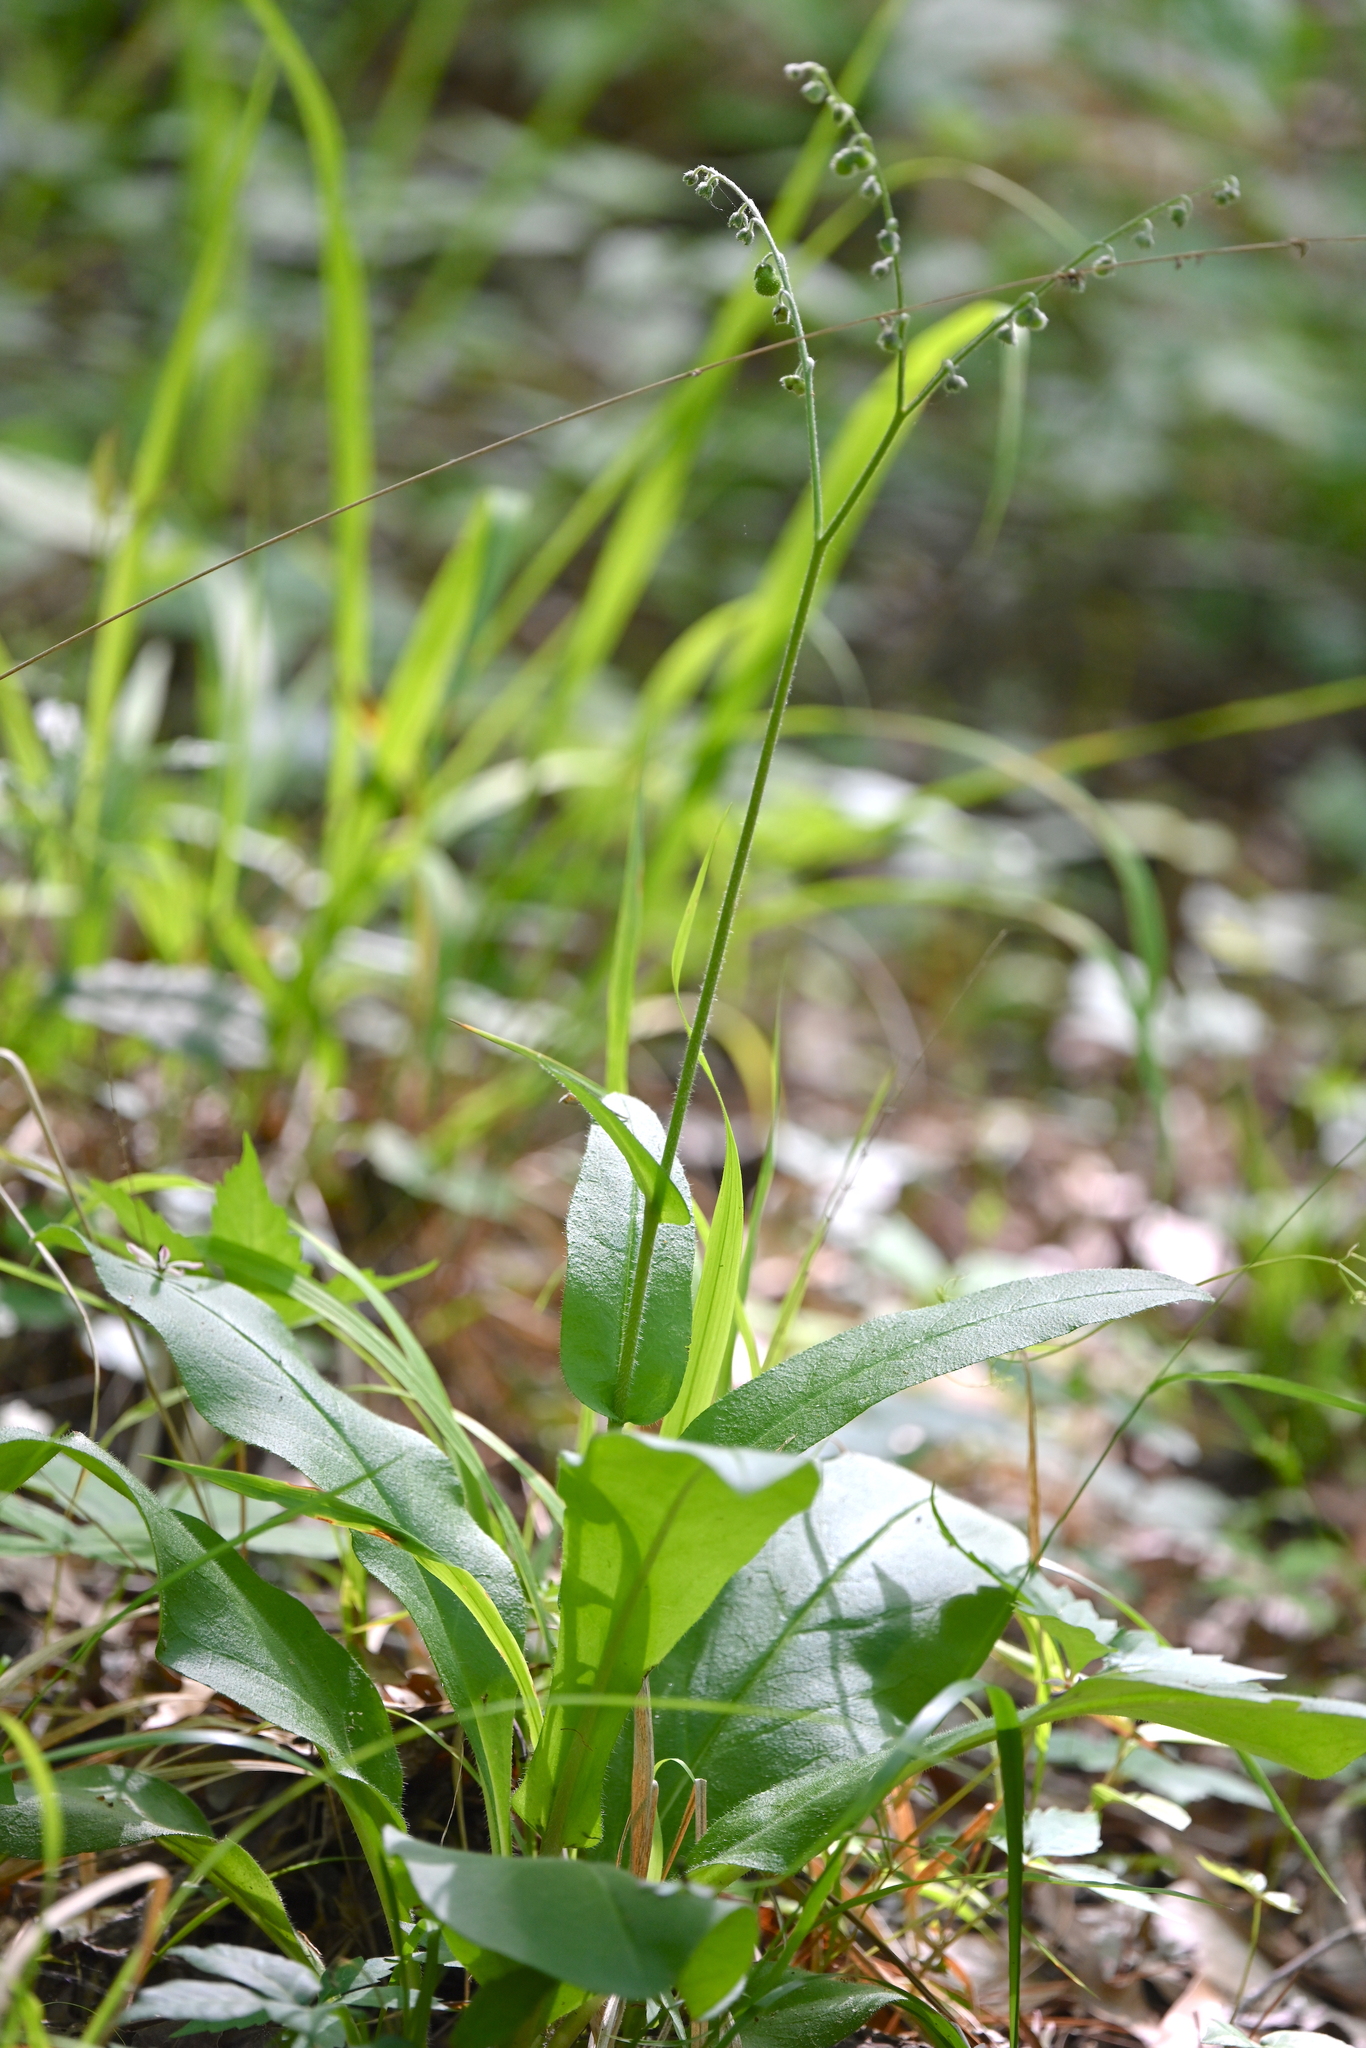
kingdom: Plantae
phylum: Tracheophyta
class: Magnoliopsida
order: Boraginales
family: Boraginaceae
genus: Andersonglossum
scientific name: Andersonglossum virginianum
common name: Wild comfrey
